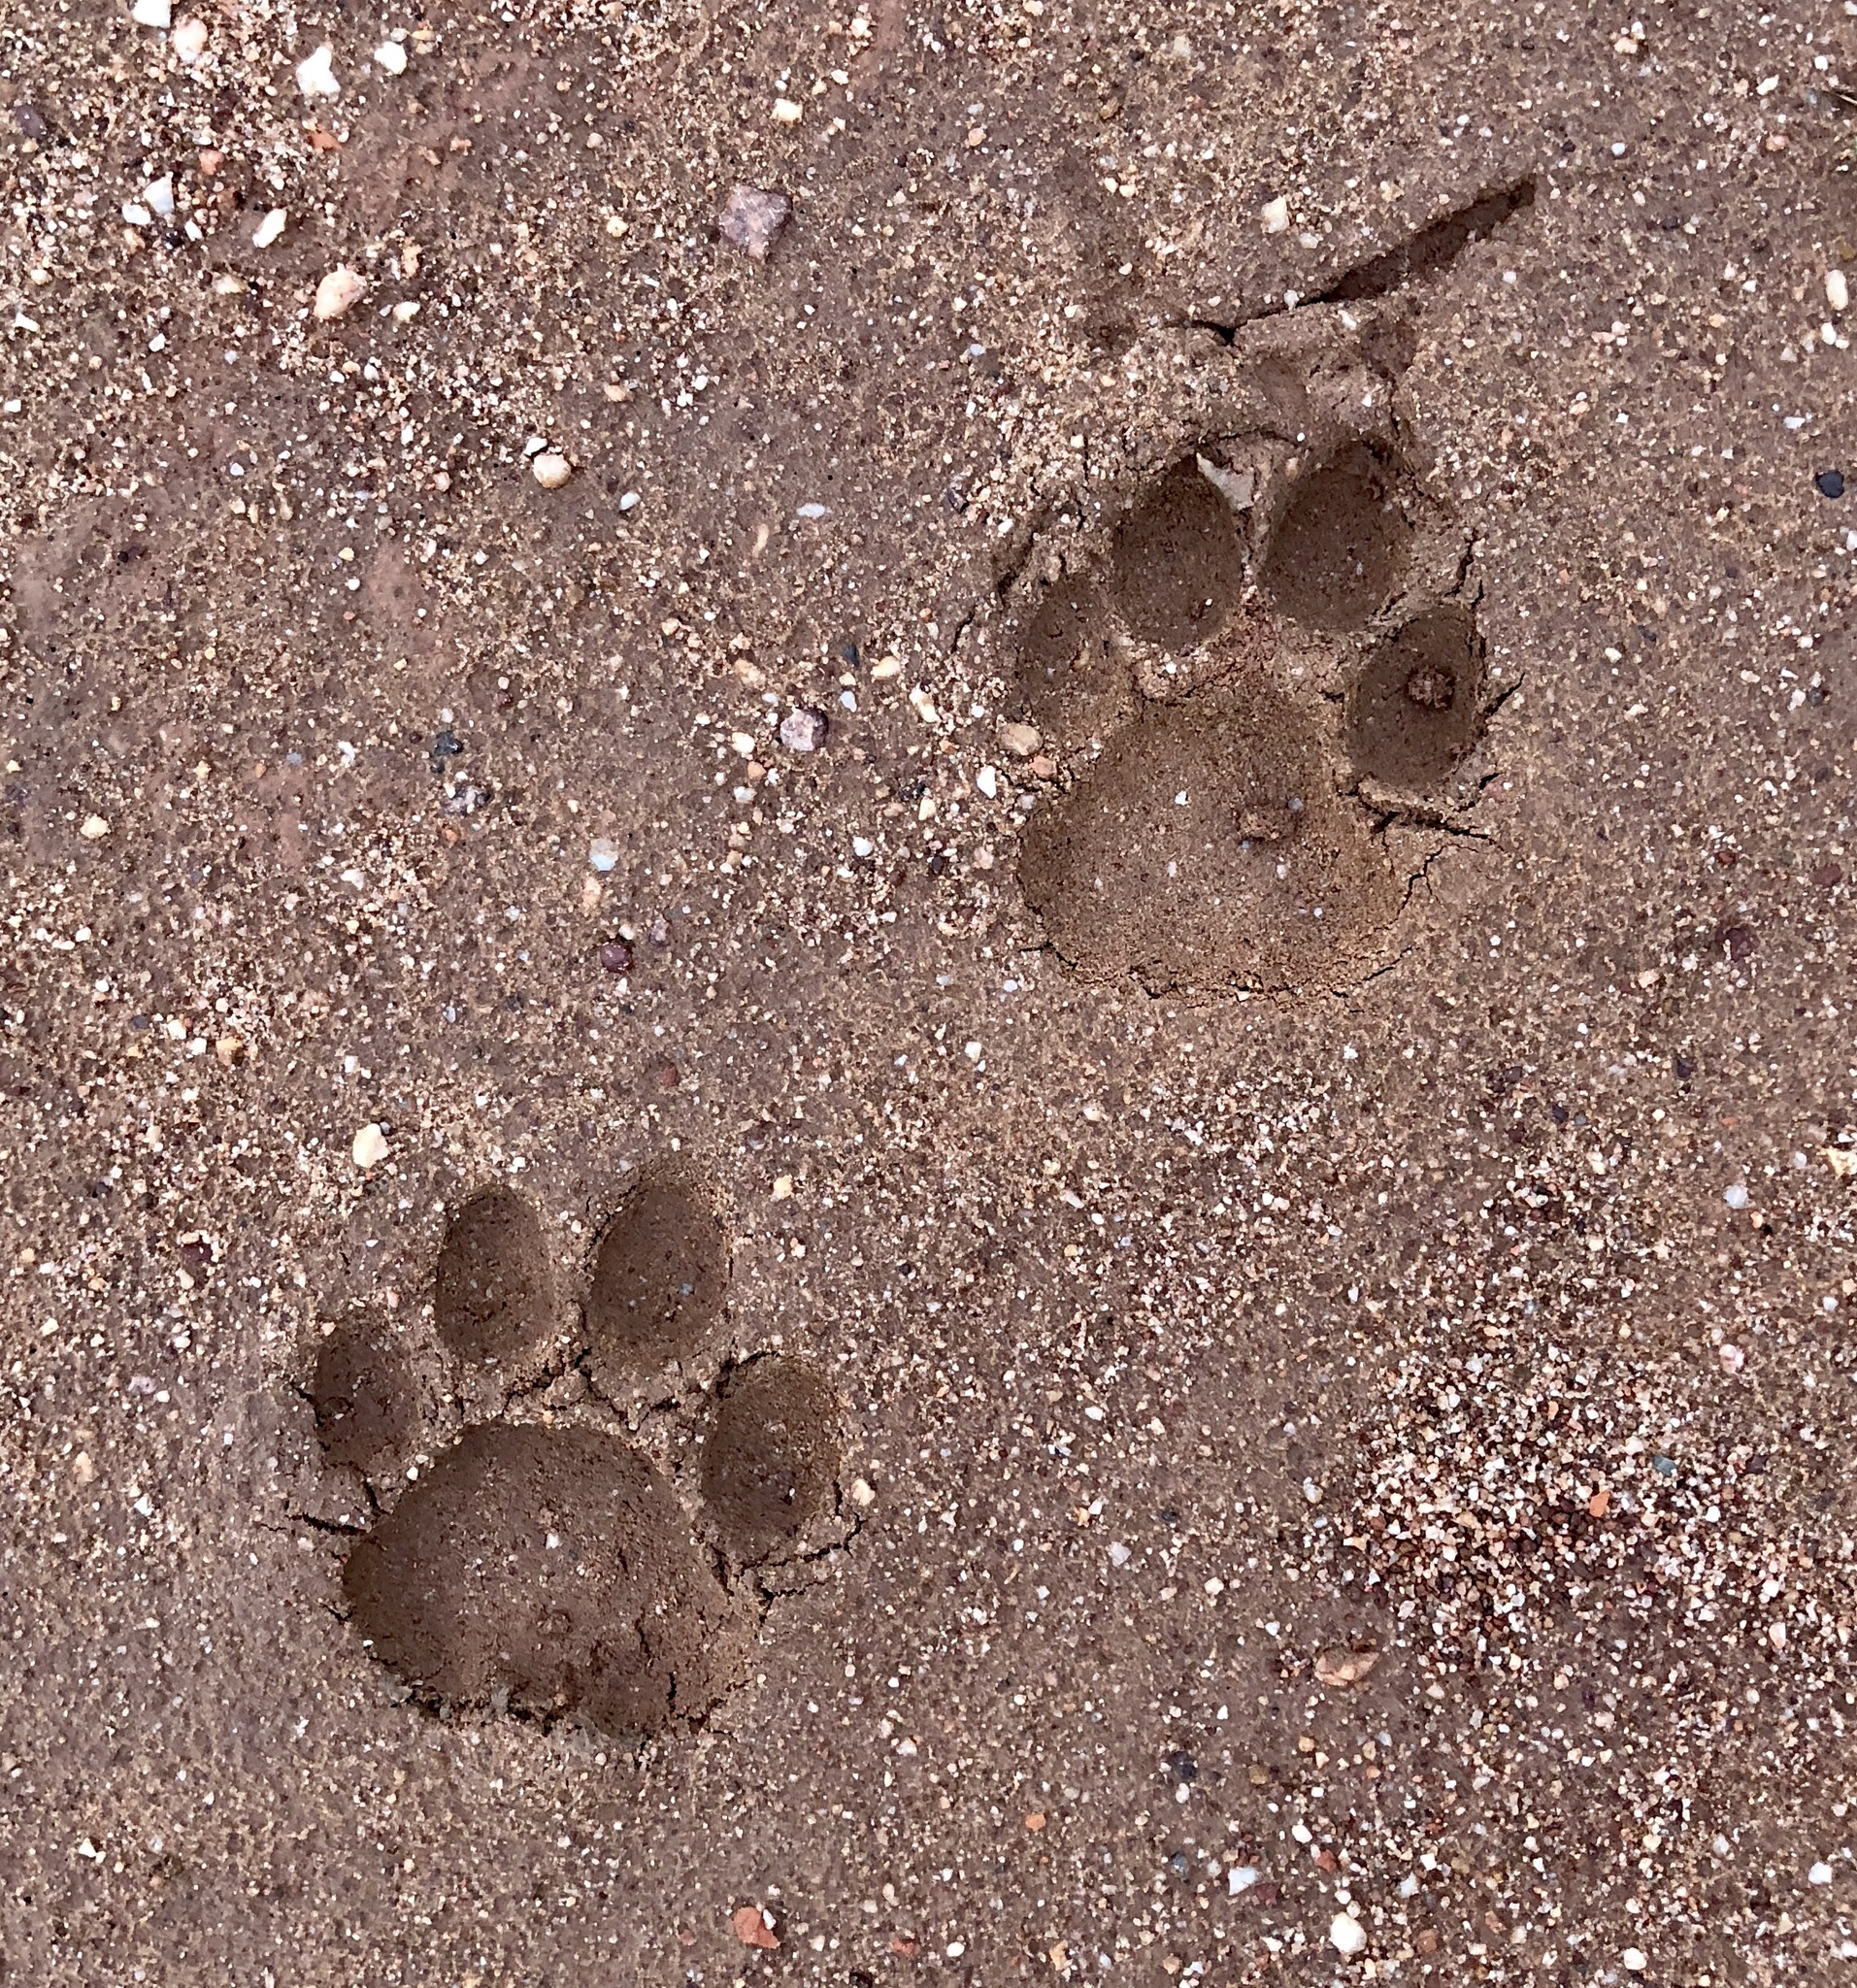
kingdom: Animalia
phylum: Chordata
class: Mammalia
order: Carnivora
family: Felidae
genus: Panthera
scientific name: Panthera onca
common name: Jaguar
